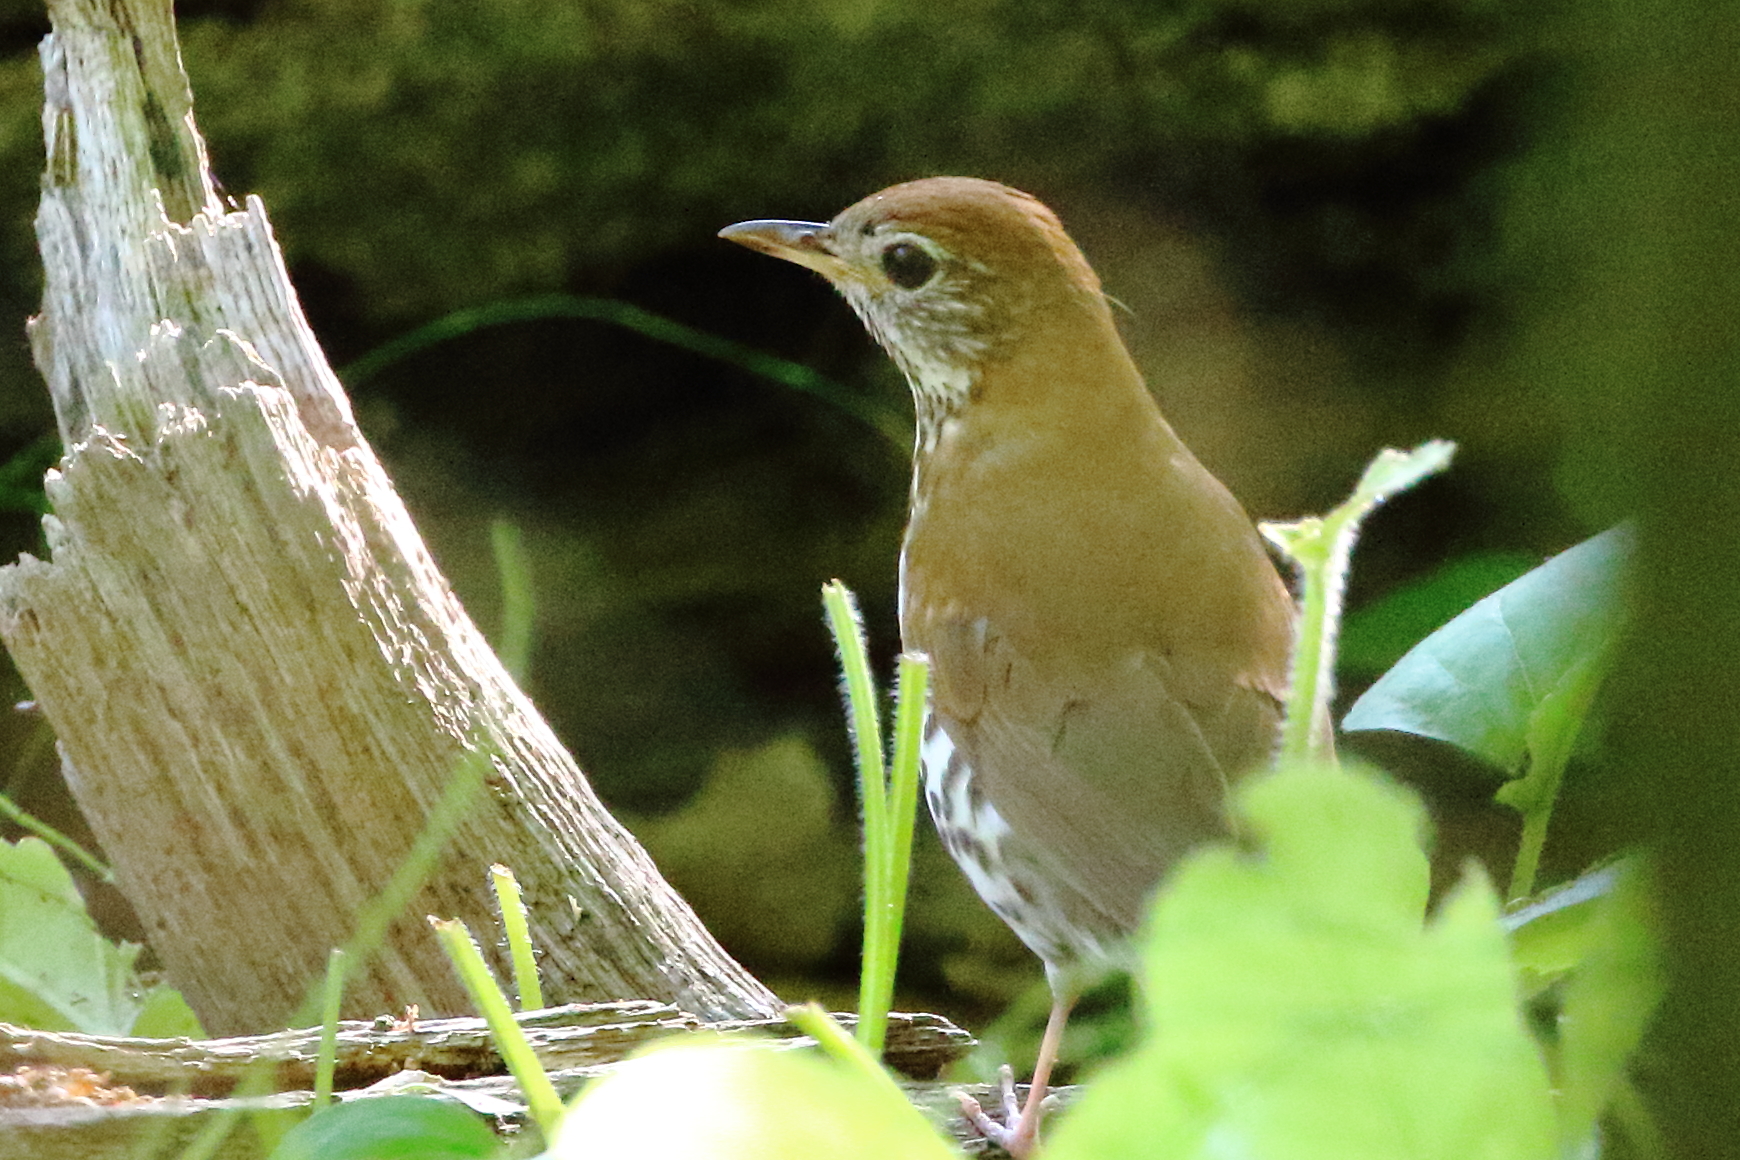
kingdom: Animalia
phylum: Chordata
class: Aves
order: Passeriformes
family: Turdidae
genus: Hylocichla
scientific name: Hylocichla mustelina
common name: Wood thrush
